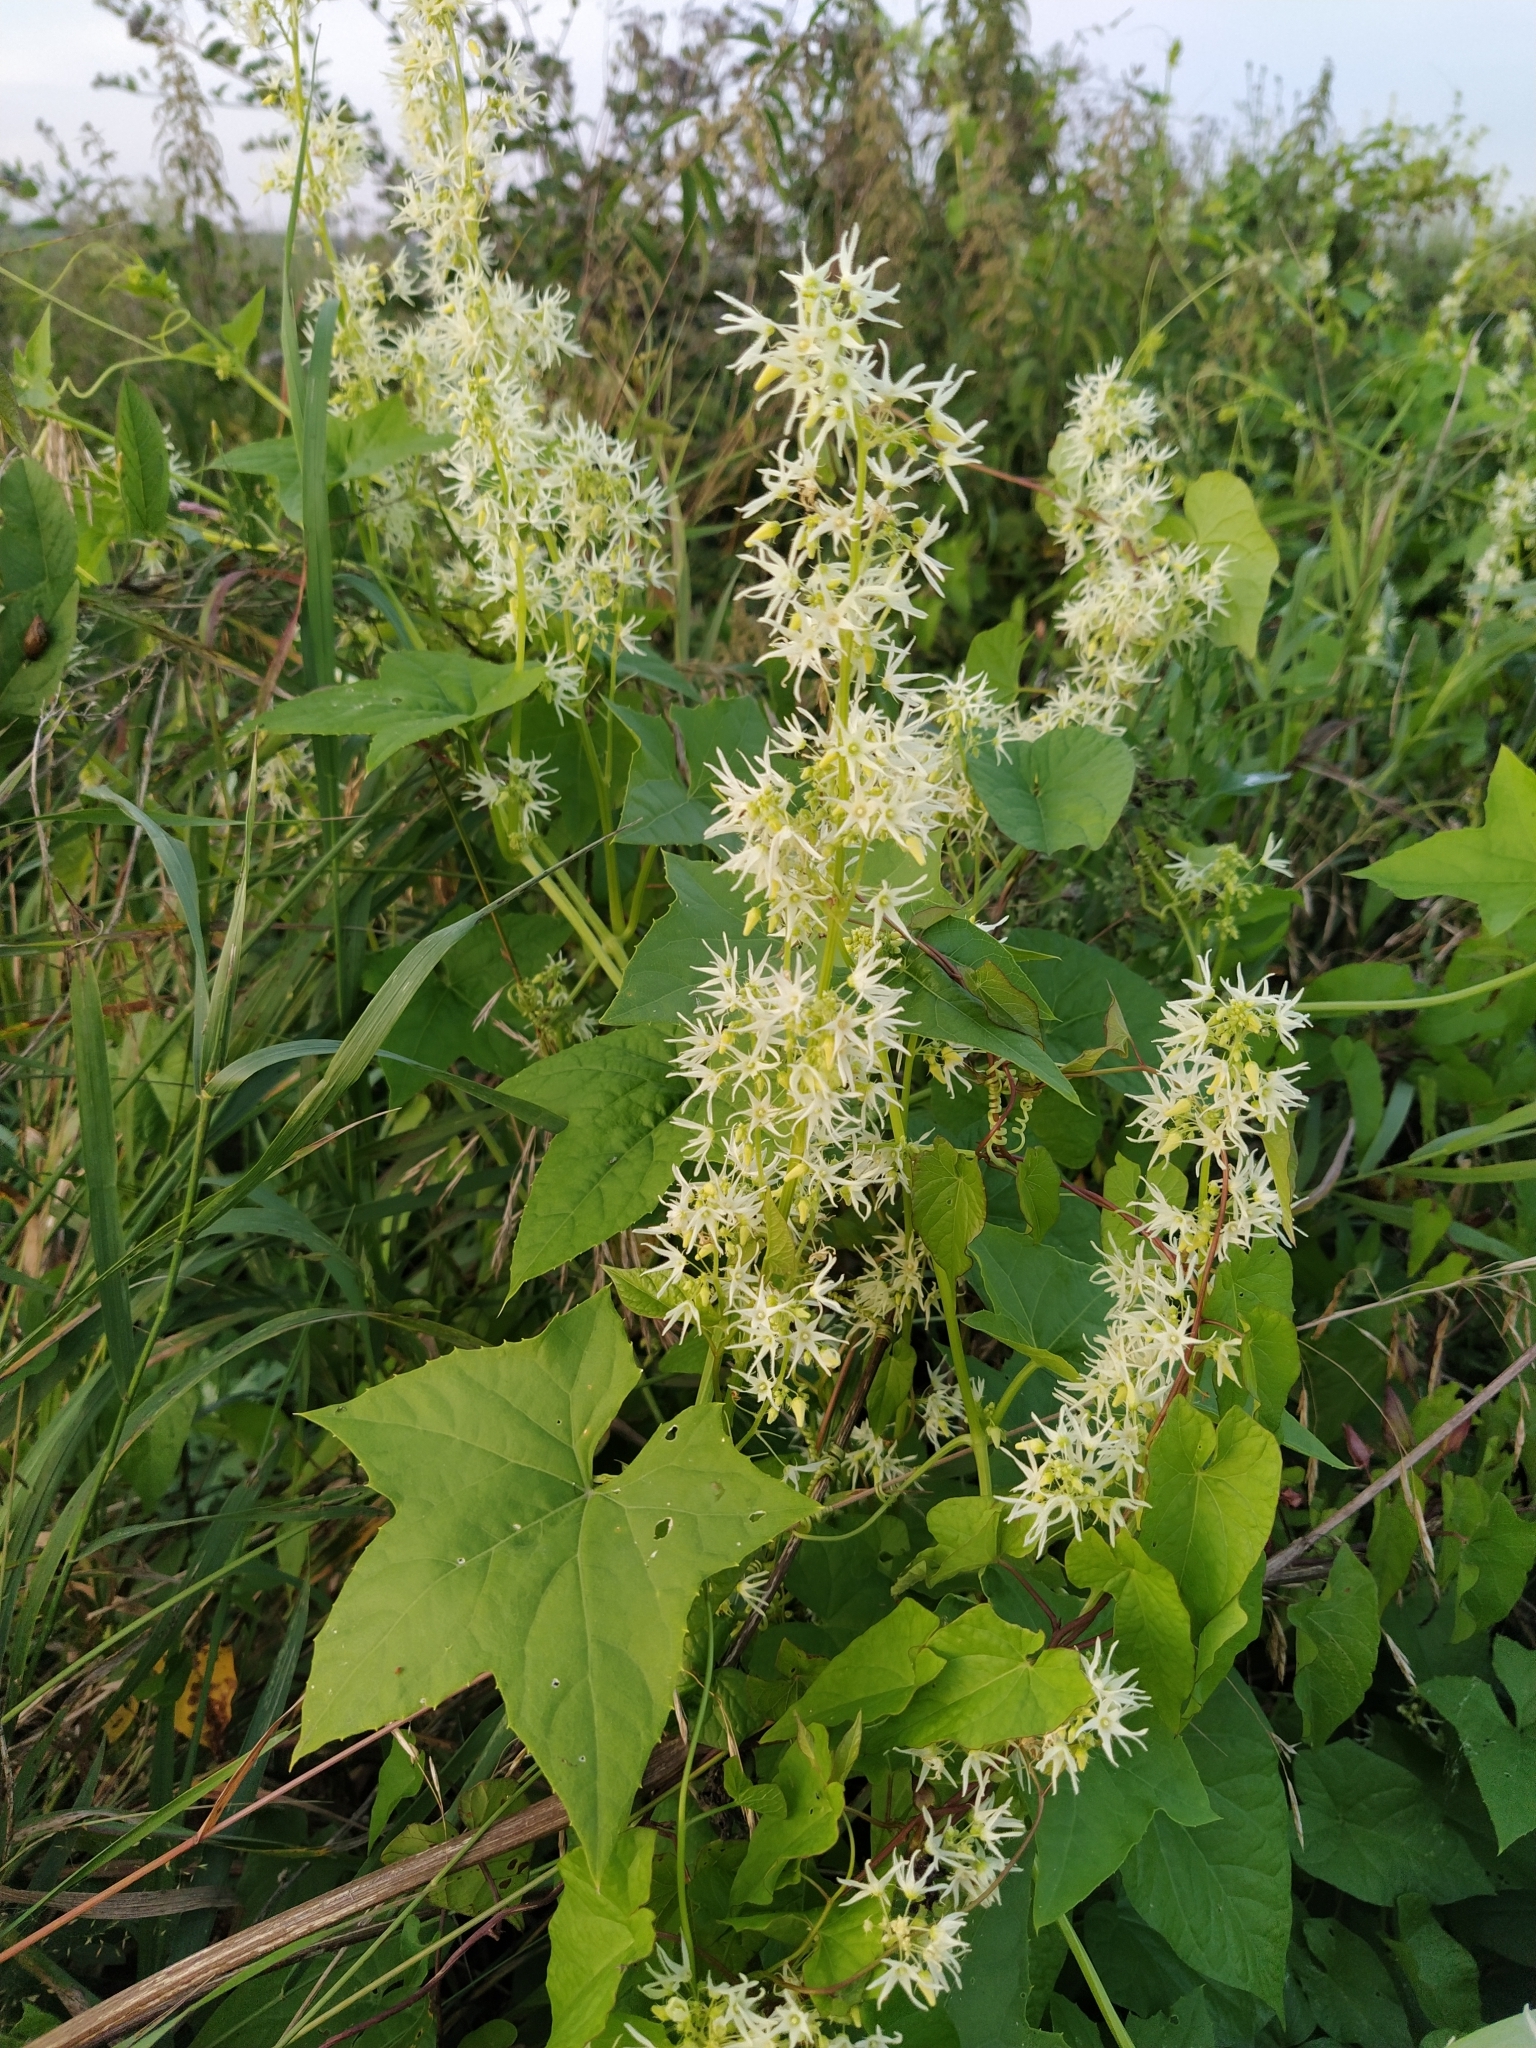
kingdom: Plantae
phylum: Tracheophyta
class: Magnoliopsida
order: Cucurbitales
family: Cucurbitaceae
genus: Echinocystis
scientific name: Echinocystis lobata
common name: Wild cucumber
